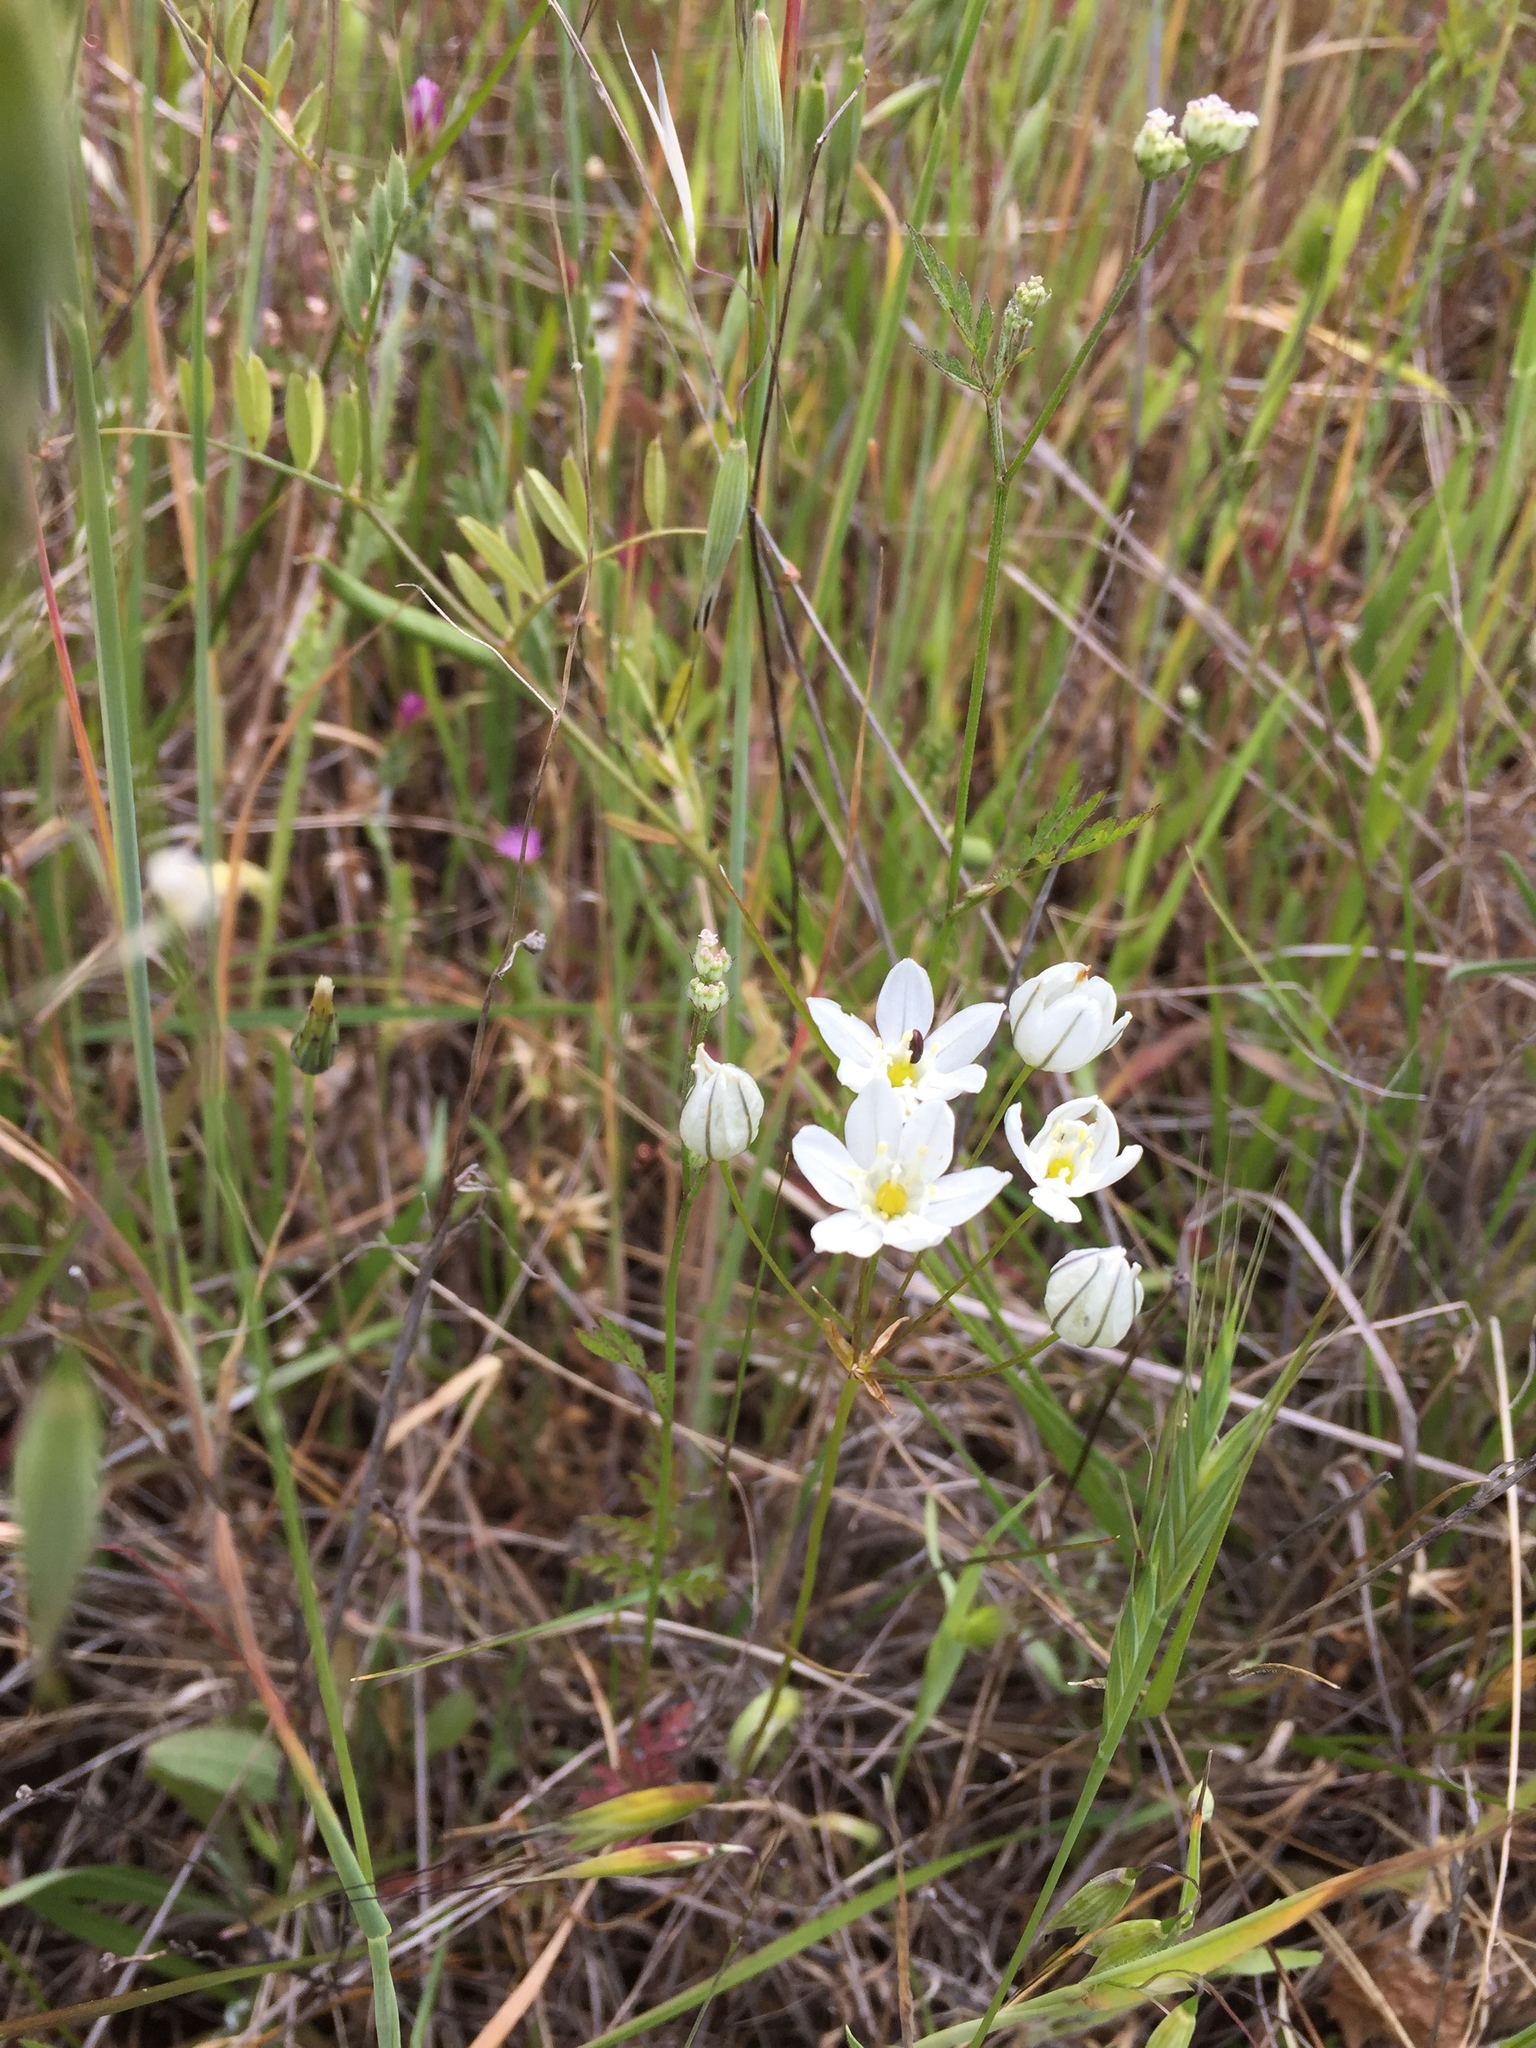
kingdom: Plantae
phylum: Tracheophyta
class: Liliopsida
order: Asparagales
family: Asparagaceae
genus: Triteleia
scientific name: Triteleia hyacinthina
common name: White brodiaea
